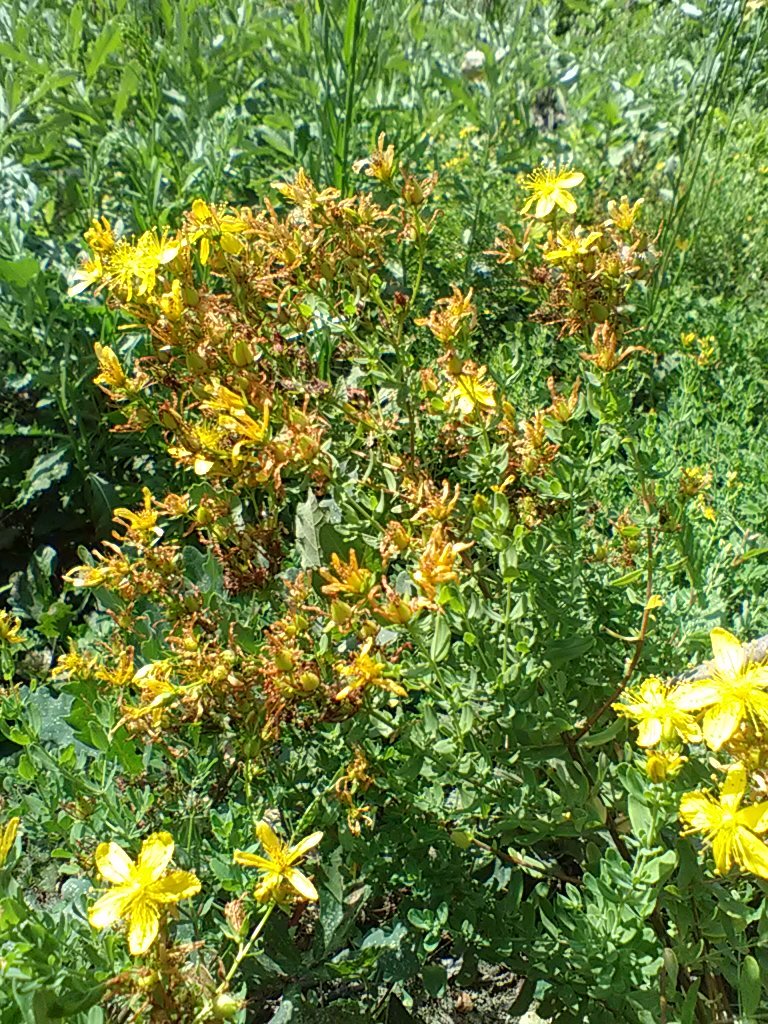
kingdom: Plantae
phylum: Tracheophyta
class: Magnoliopsida
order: Malpighiales
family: Hypericaceae
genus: Hypericum
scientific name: Hypericum perforatum
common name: Common st. johnswort
